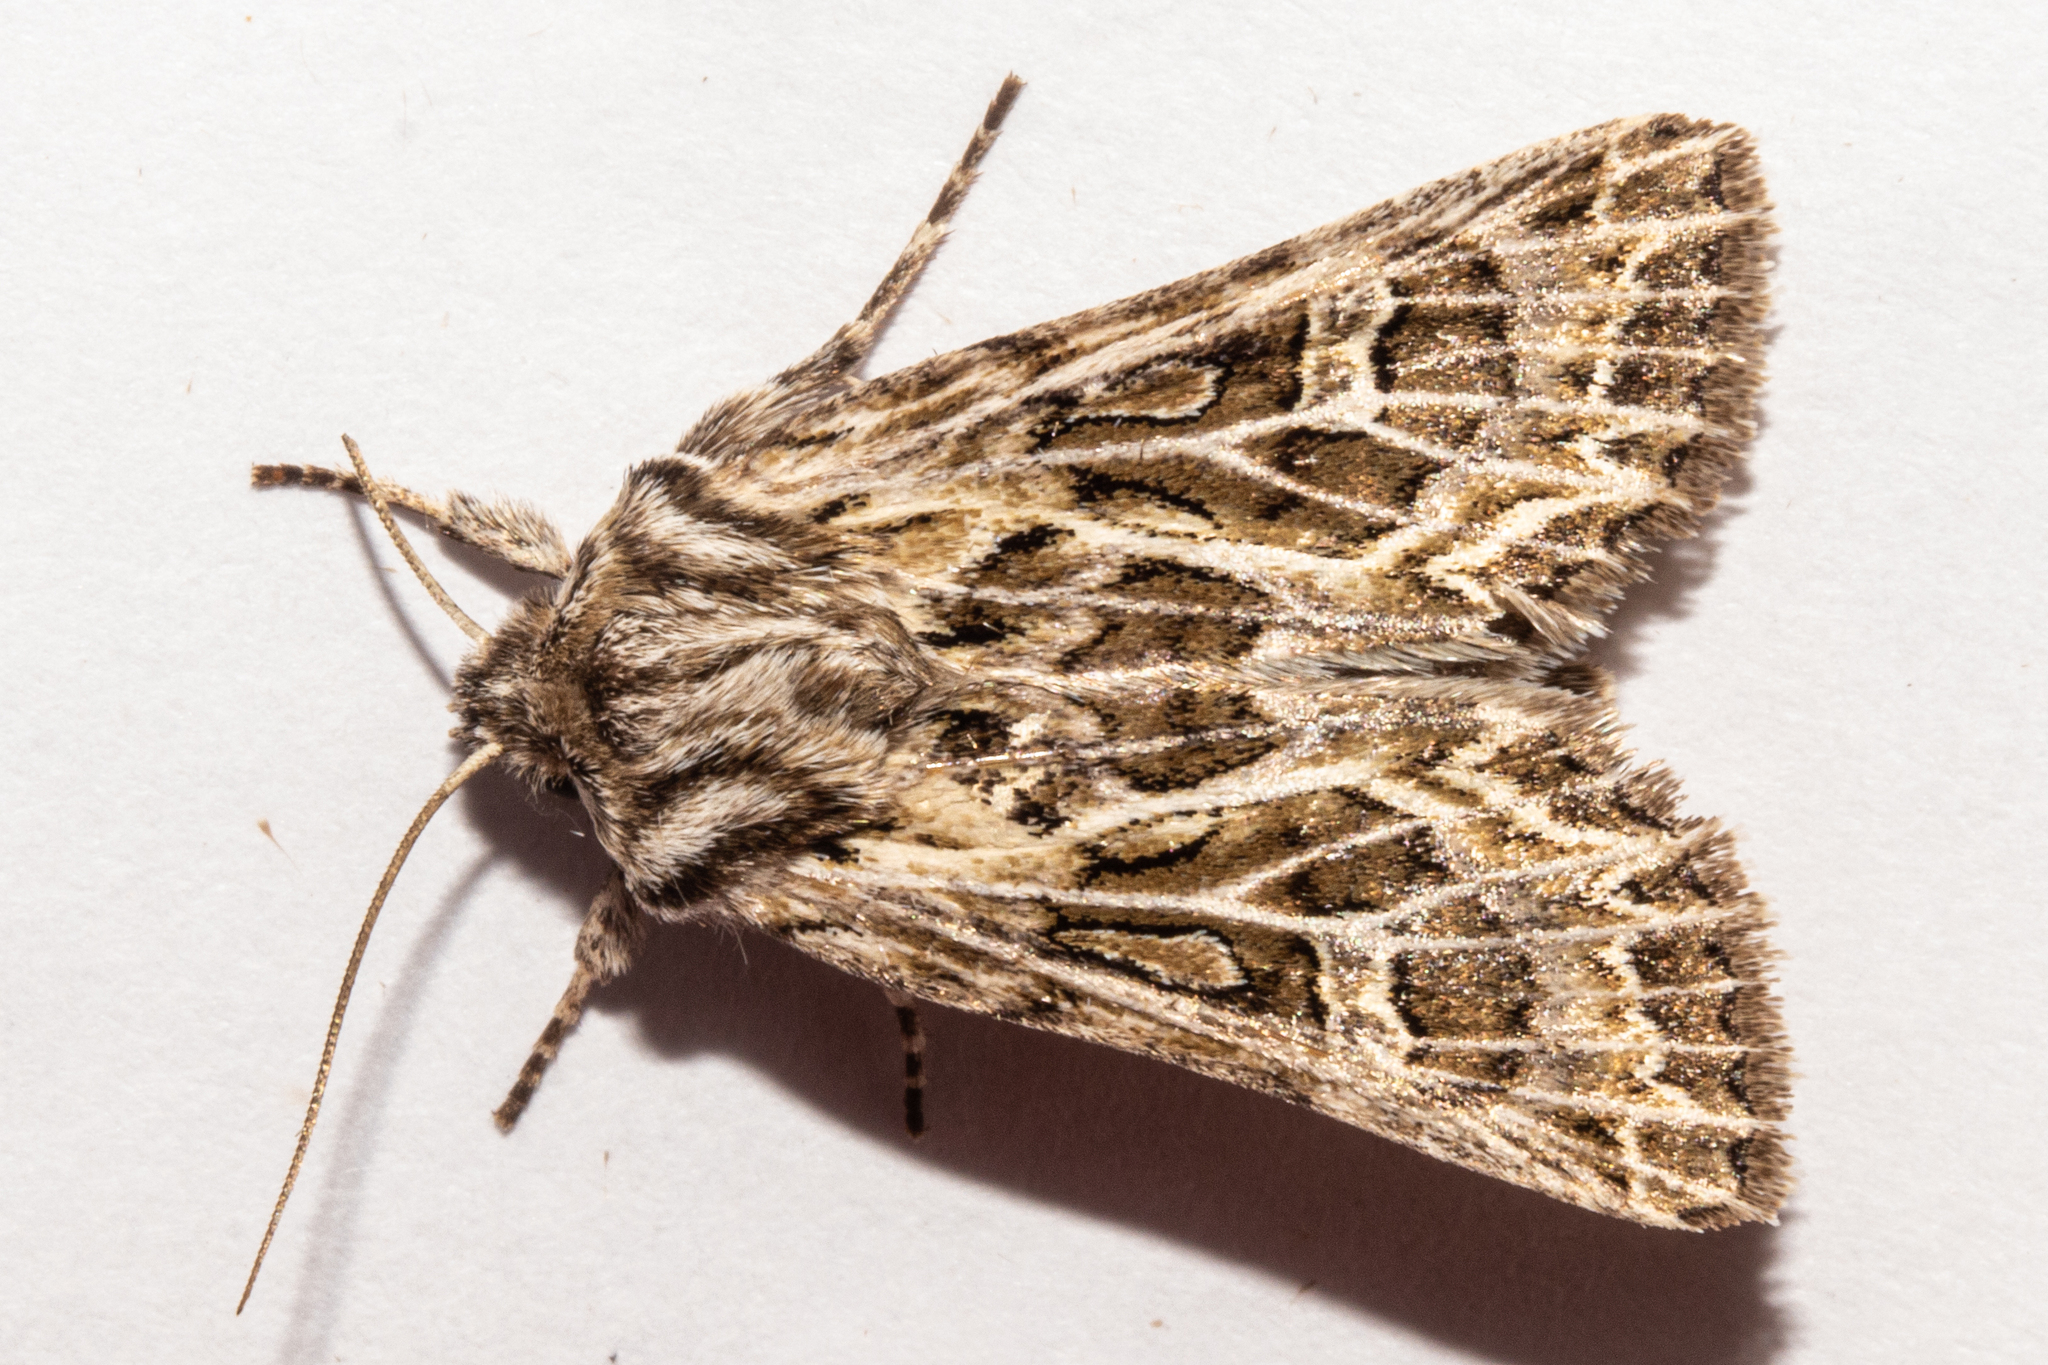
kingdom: Animalia
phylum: Arthropoda
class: Insecta
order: Lepidoptera
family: Noctuidae
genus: Ichneutica
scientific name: Ichneutica
